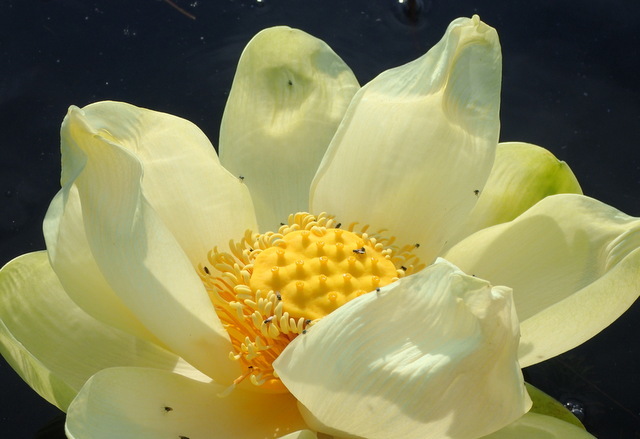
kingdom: Plantae
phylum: Tracheophyta
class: Magnoliopsida
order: Proteales
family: Nelumbonaceae
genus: Nelumbo
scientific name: Nelumbo lutea
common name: American lotus
